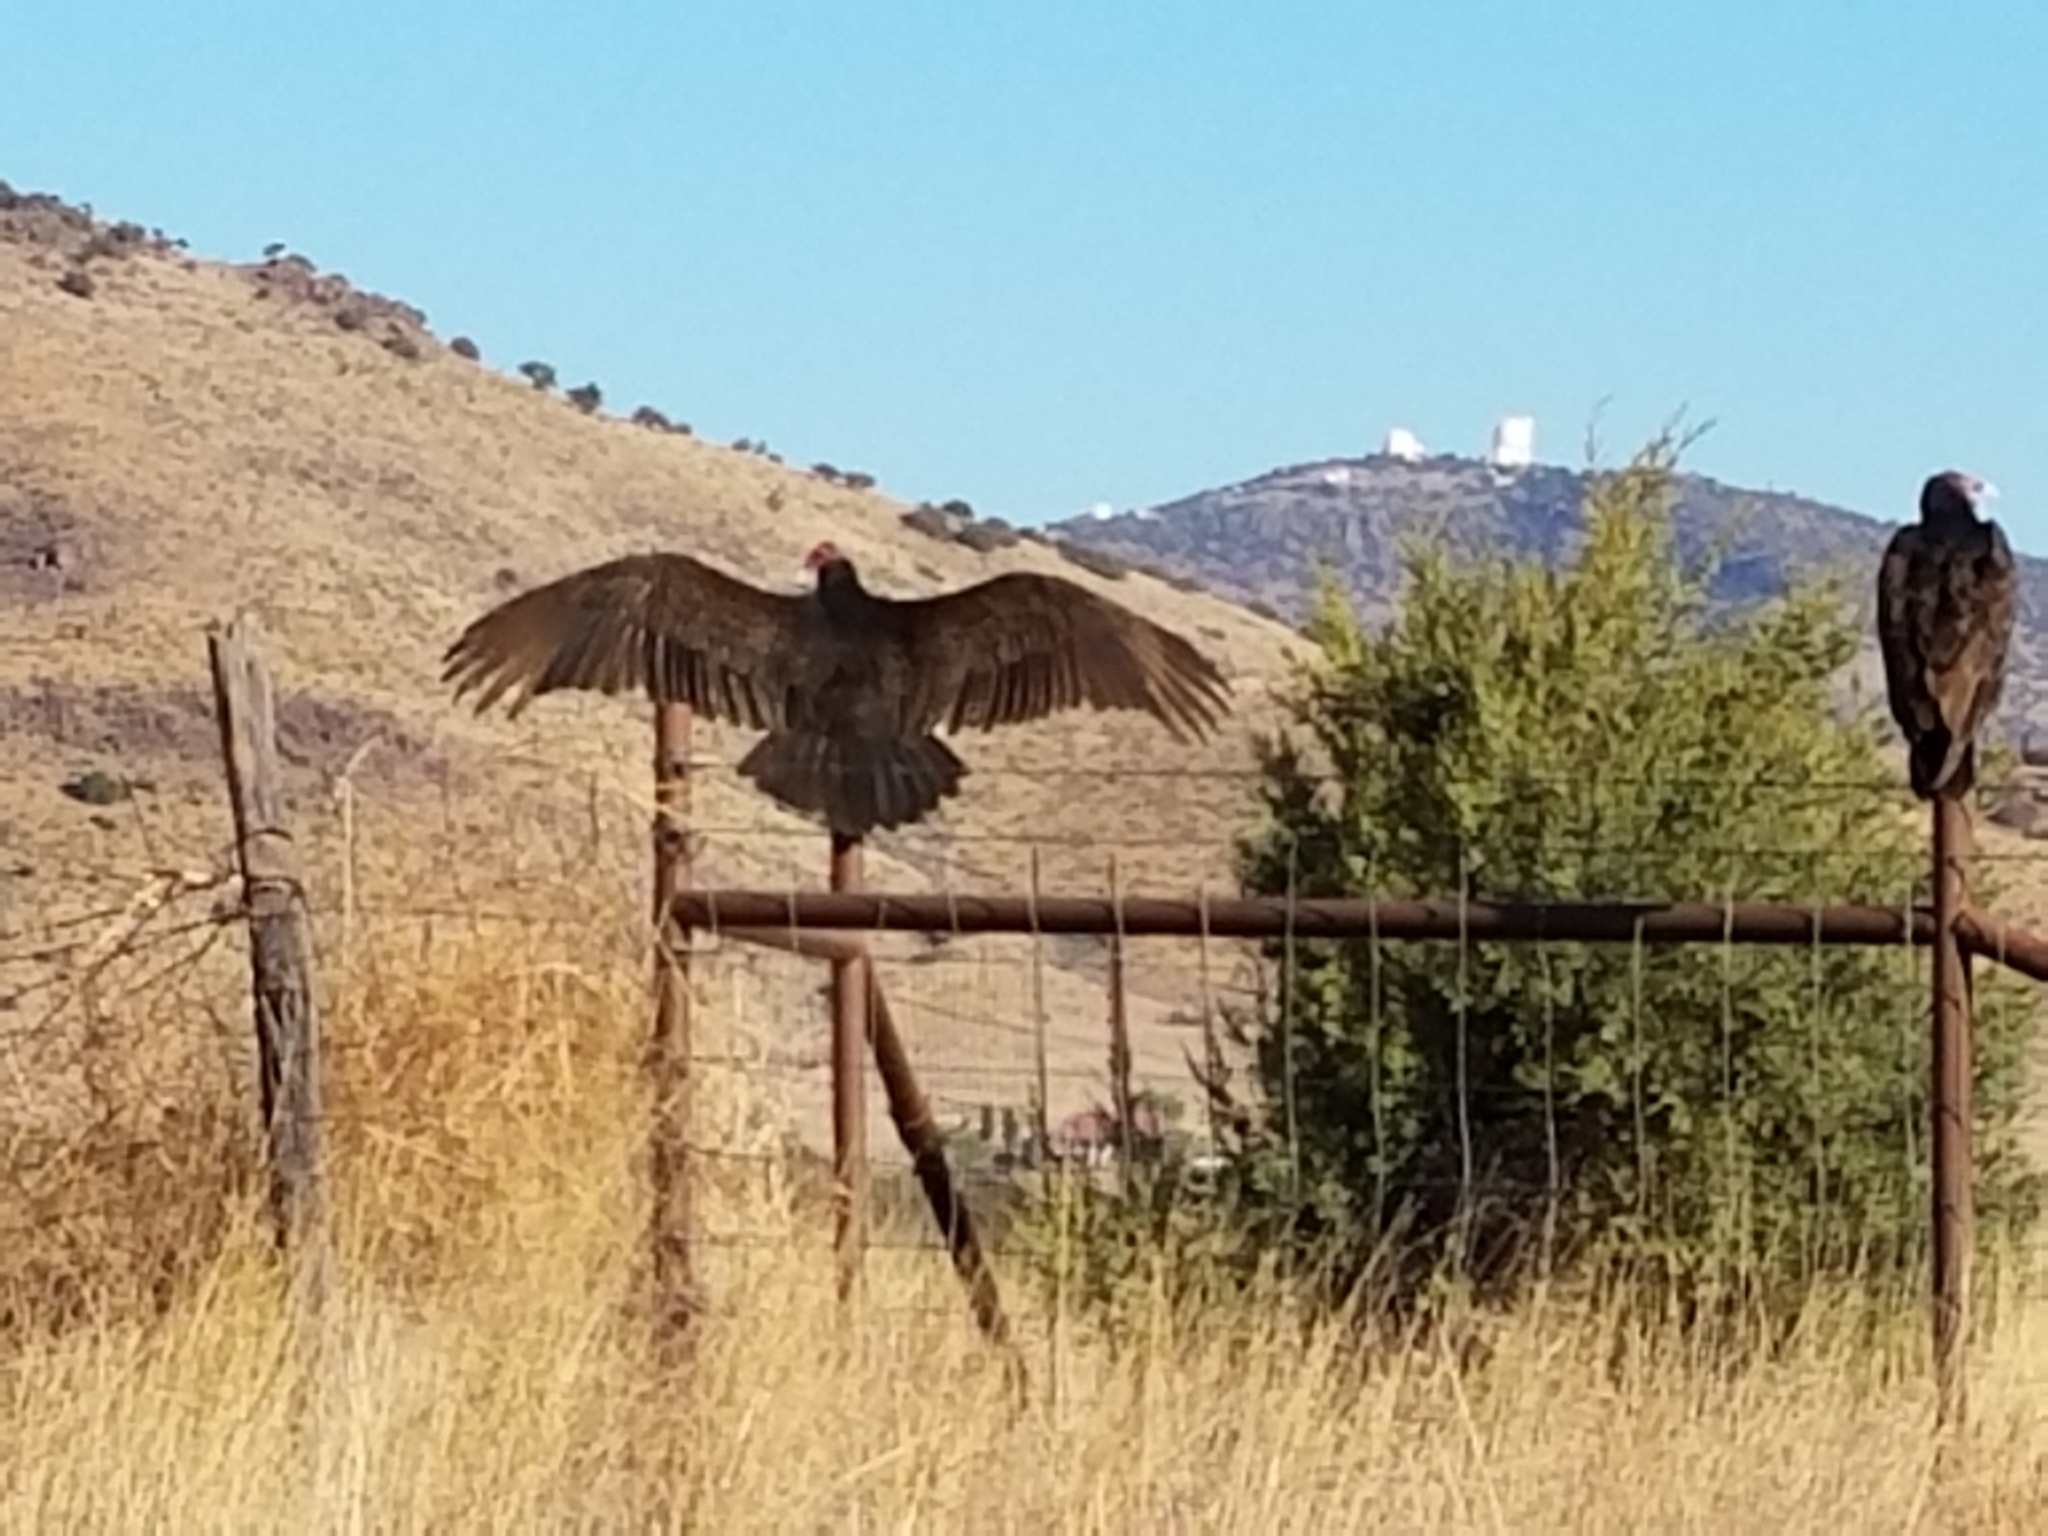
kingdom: Animalia
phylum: Chordata
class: Aves
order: Accipitriformes
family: Cathartidae
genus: Cathartes
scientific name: Cathartes aura
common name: Turkey vulture
